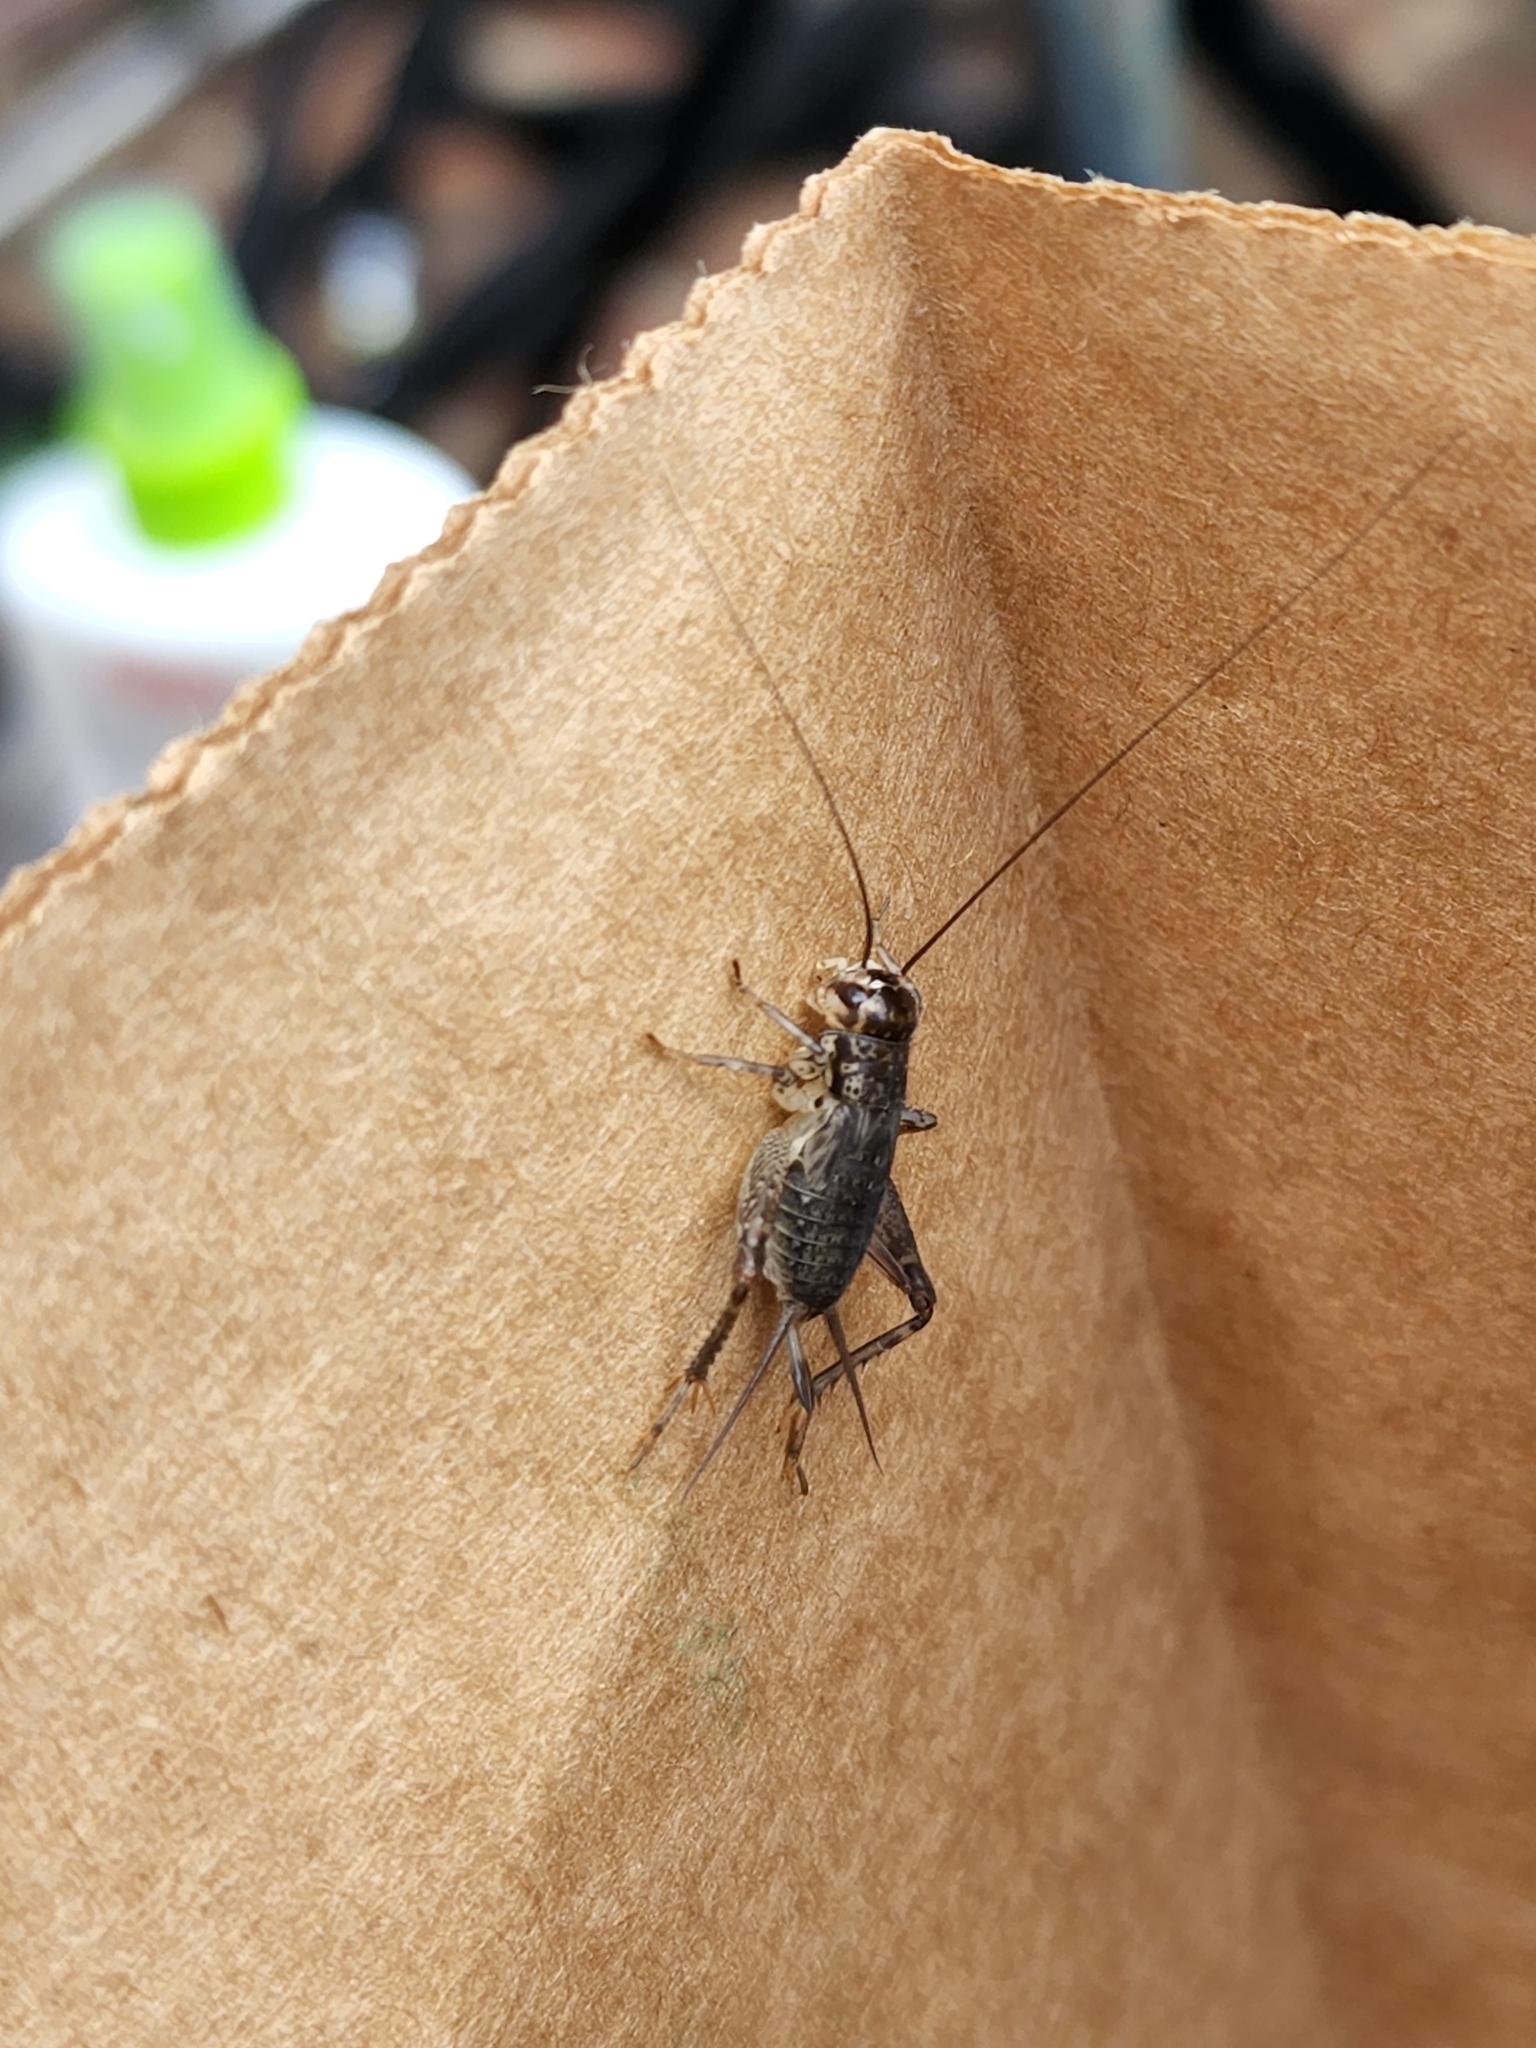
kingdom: Animalia
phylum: Arthropoda
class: Insecta
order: Orthoptera
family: Gryllidae
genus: Velarifictorus
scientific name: Velarifictorus micado
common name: Japanese burrowing cricket
